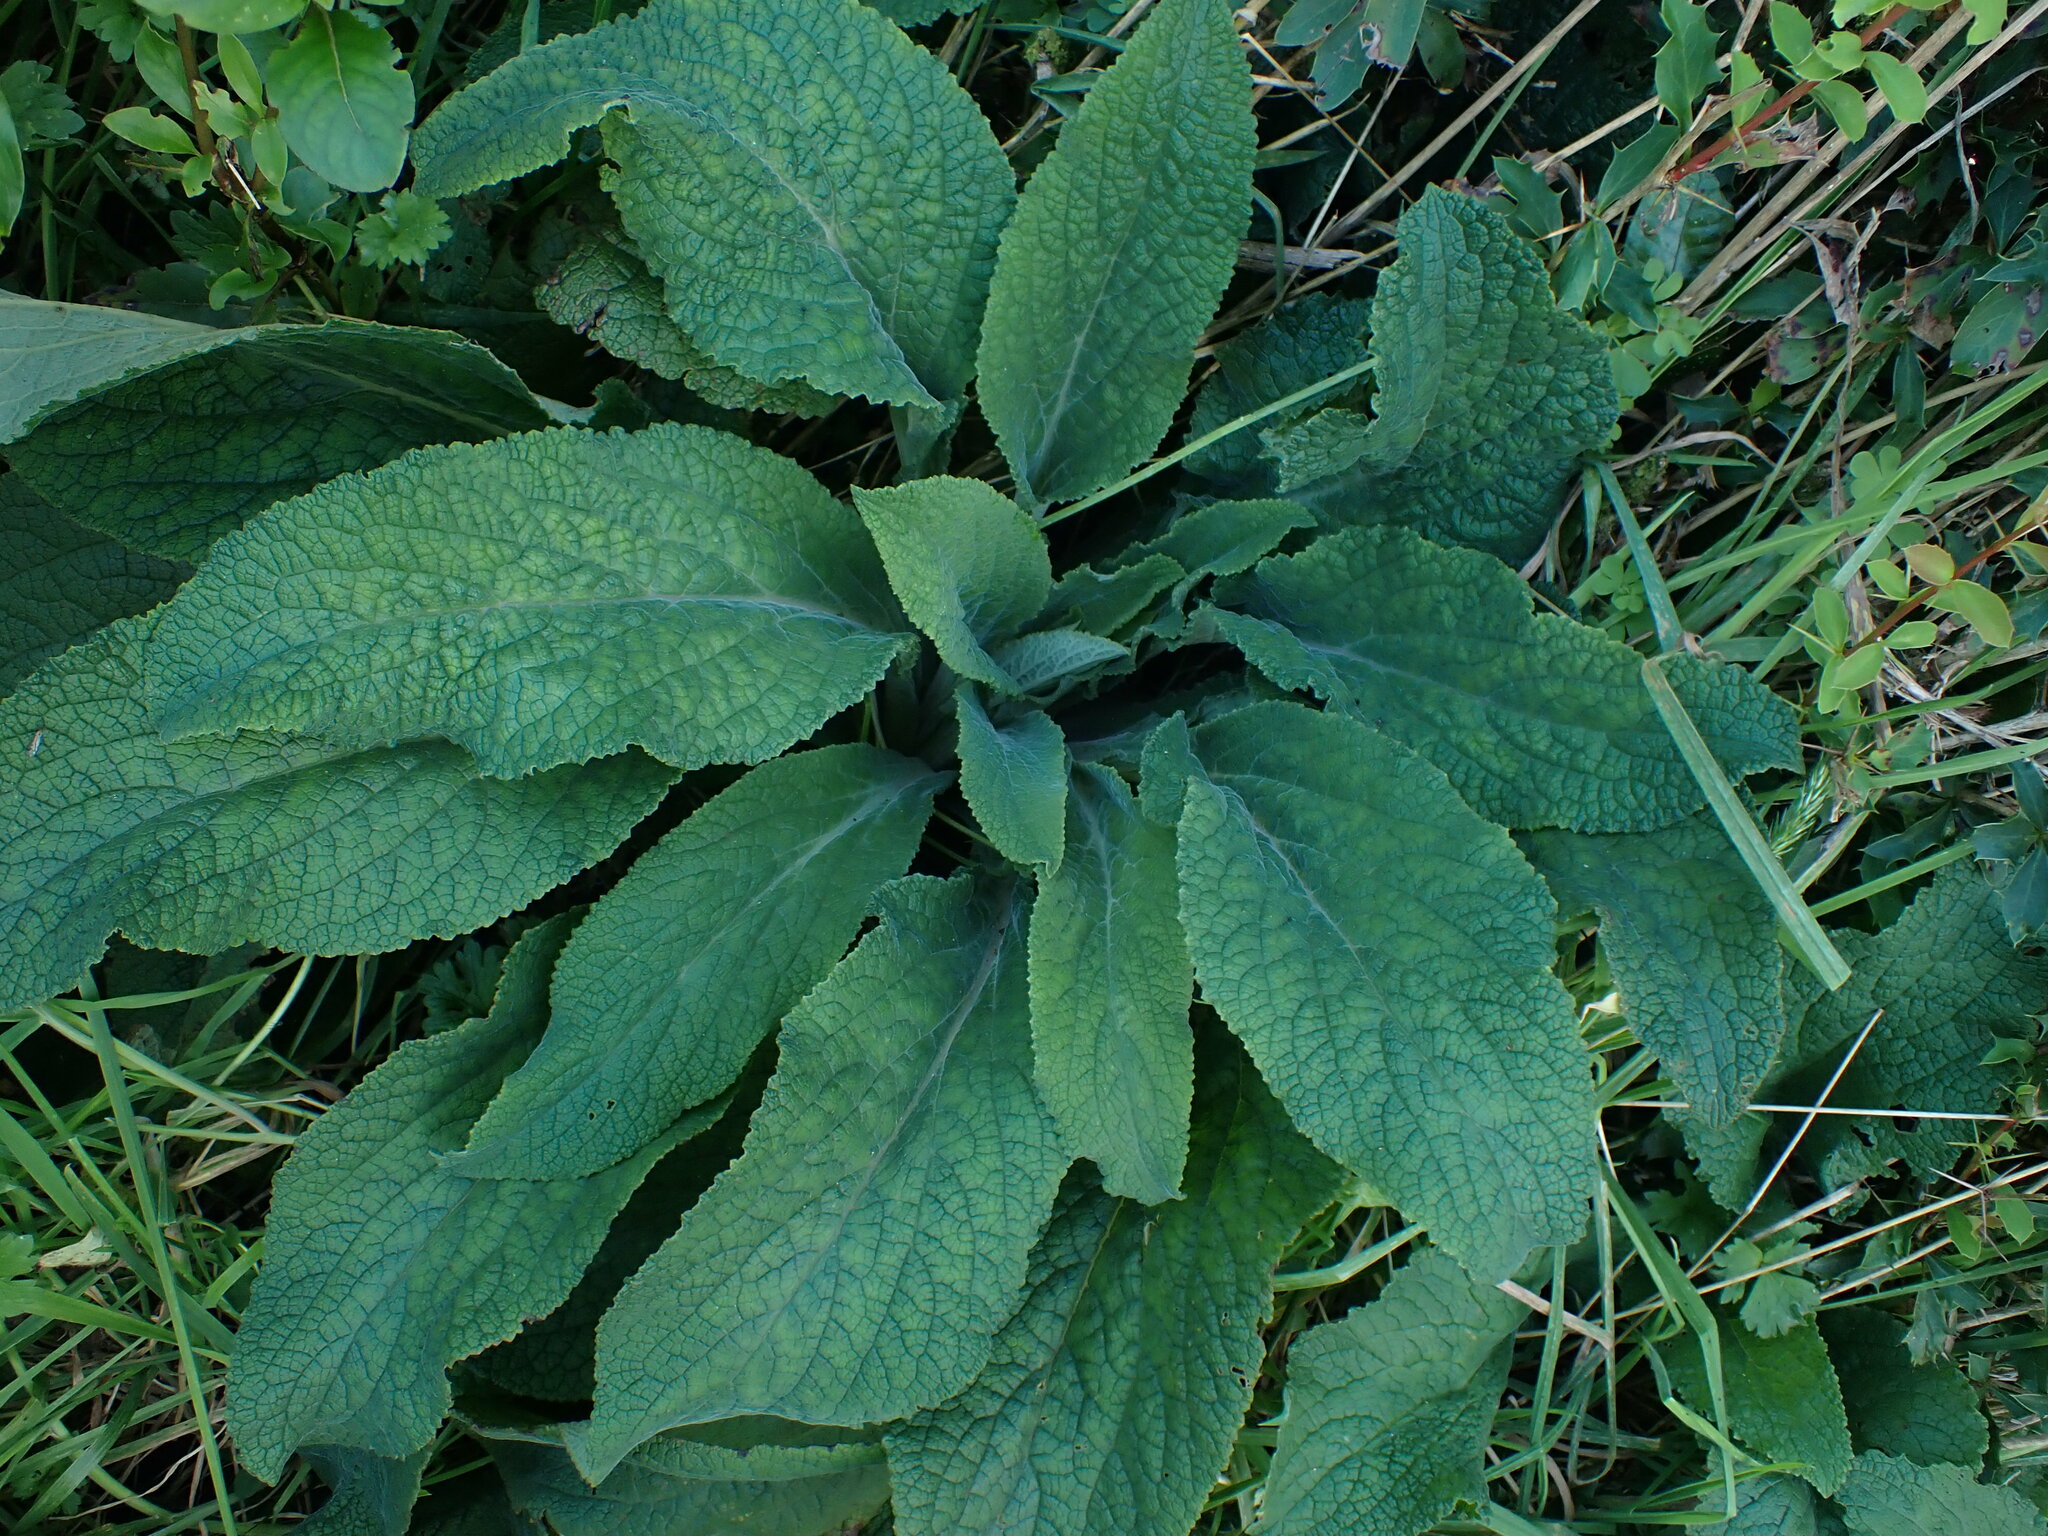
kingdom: Plantae
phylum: Tracheophyta
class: Magnoliopsida
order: Lamiales
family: Plantaginaceae
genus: Digitalis
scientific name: Digitalis purpurea
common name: Foxglove
